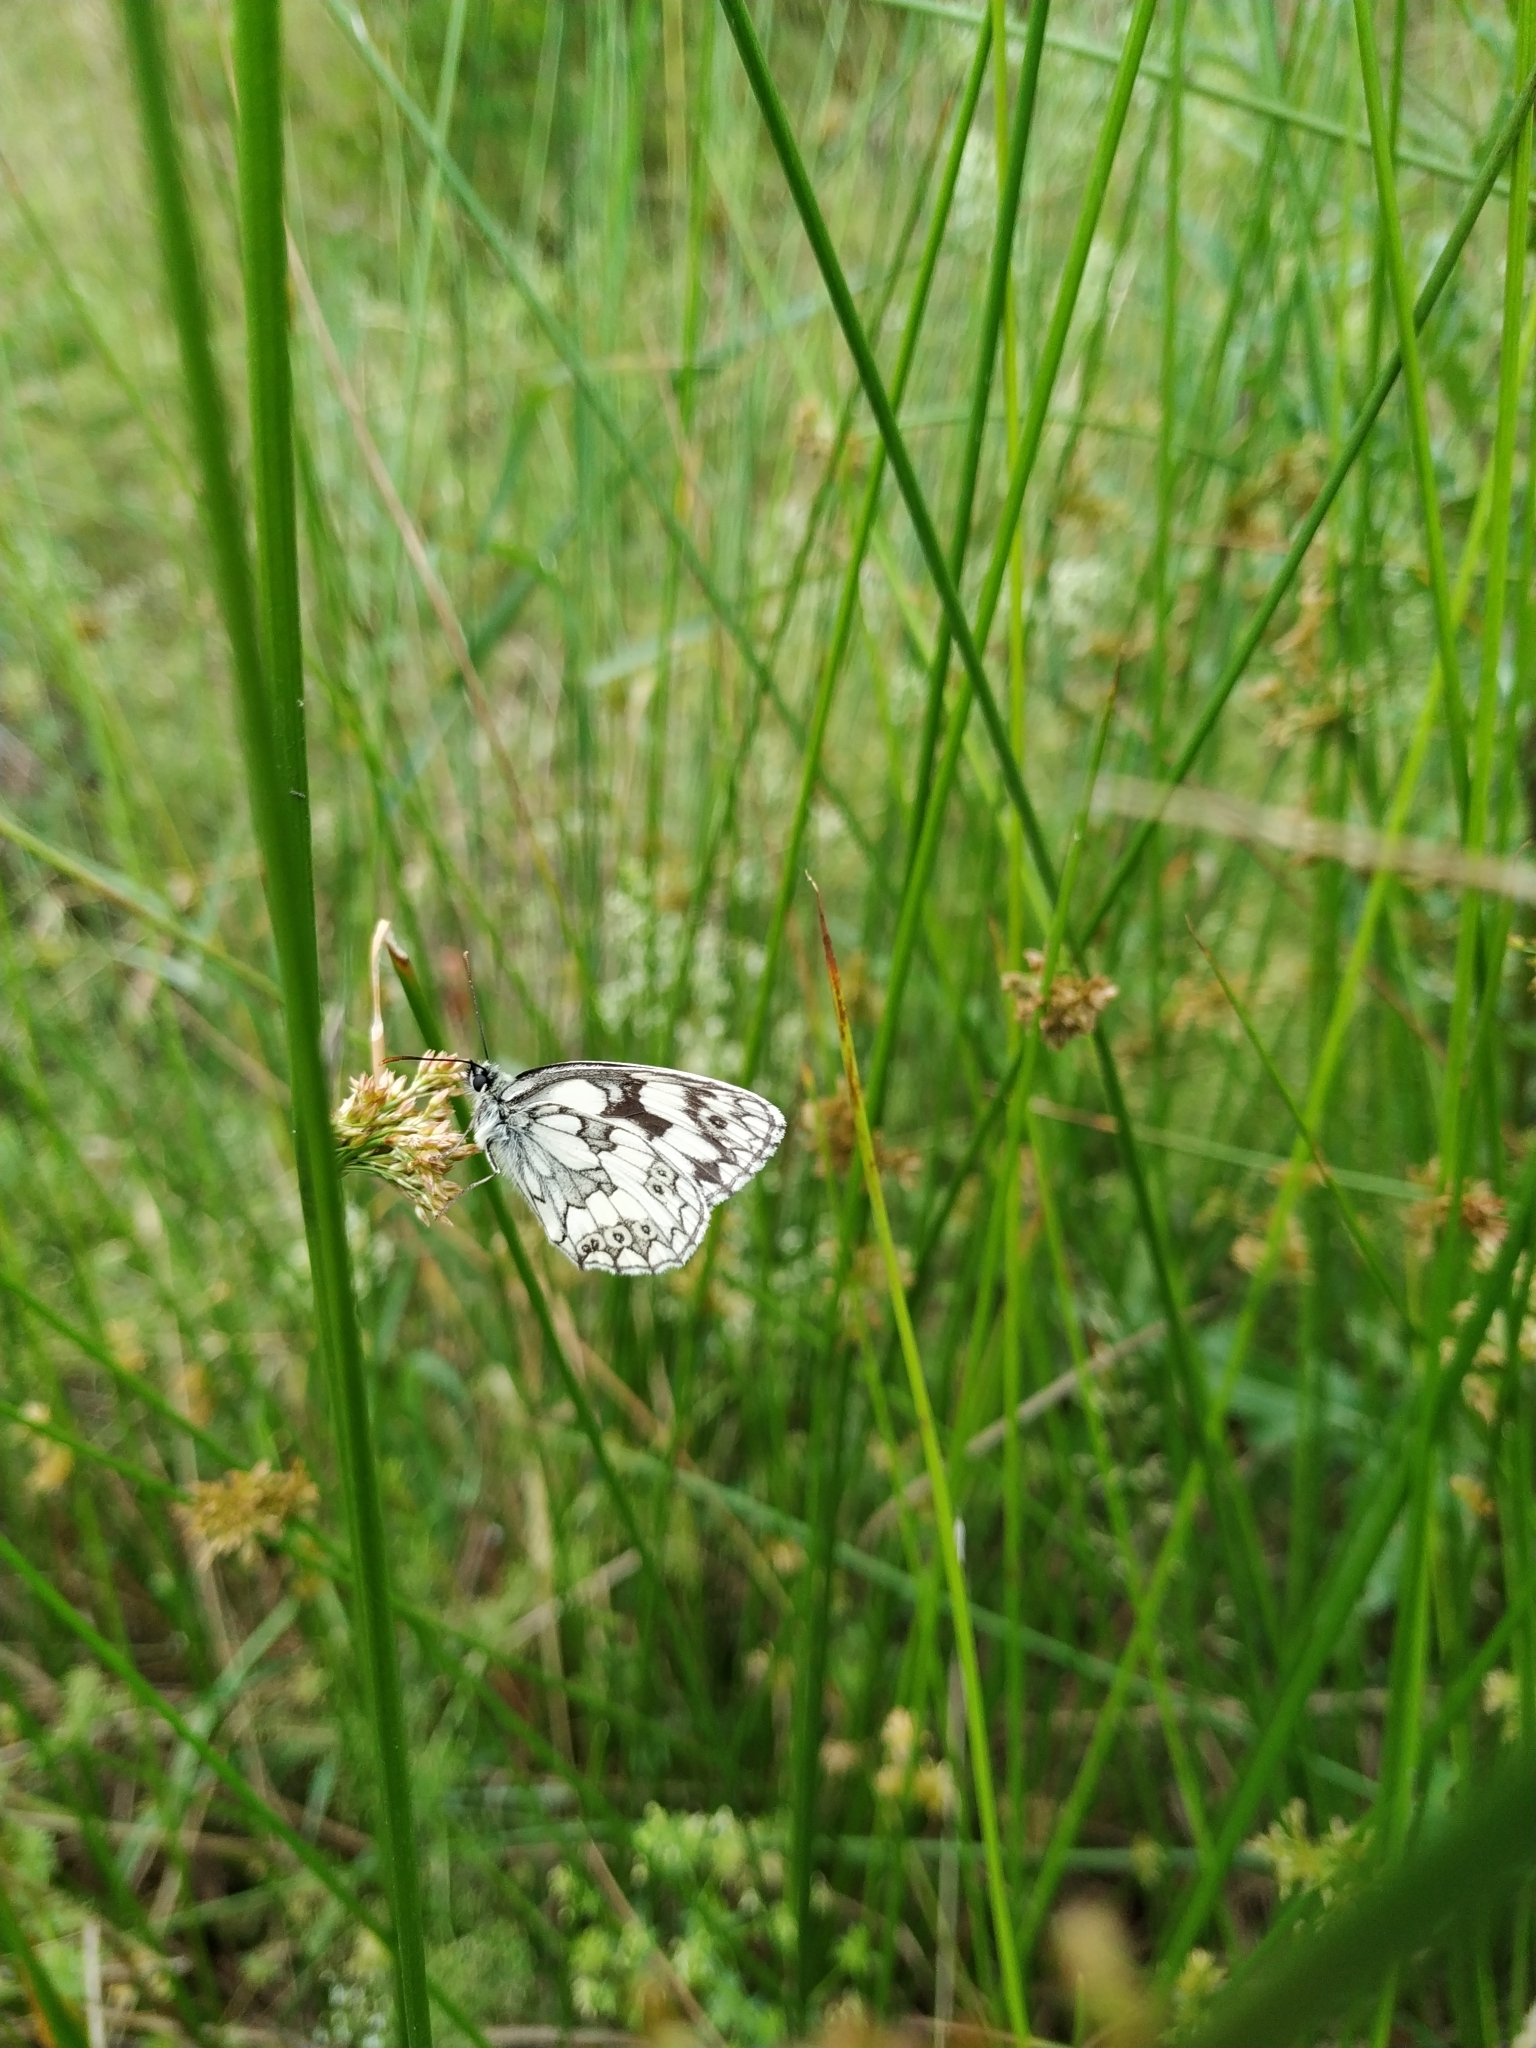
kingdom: Animalia
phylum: Arthropoda
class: Insecta
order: Lepidoptera
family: Nymphalidae
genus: Melanargia
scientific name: Melanargia galathea
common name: Marbled white
